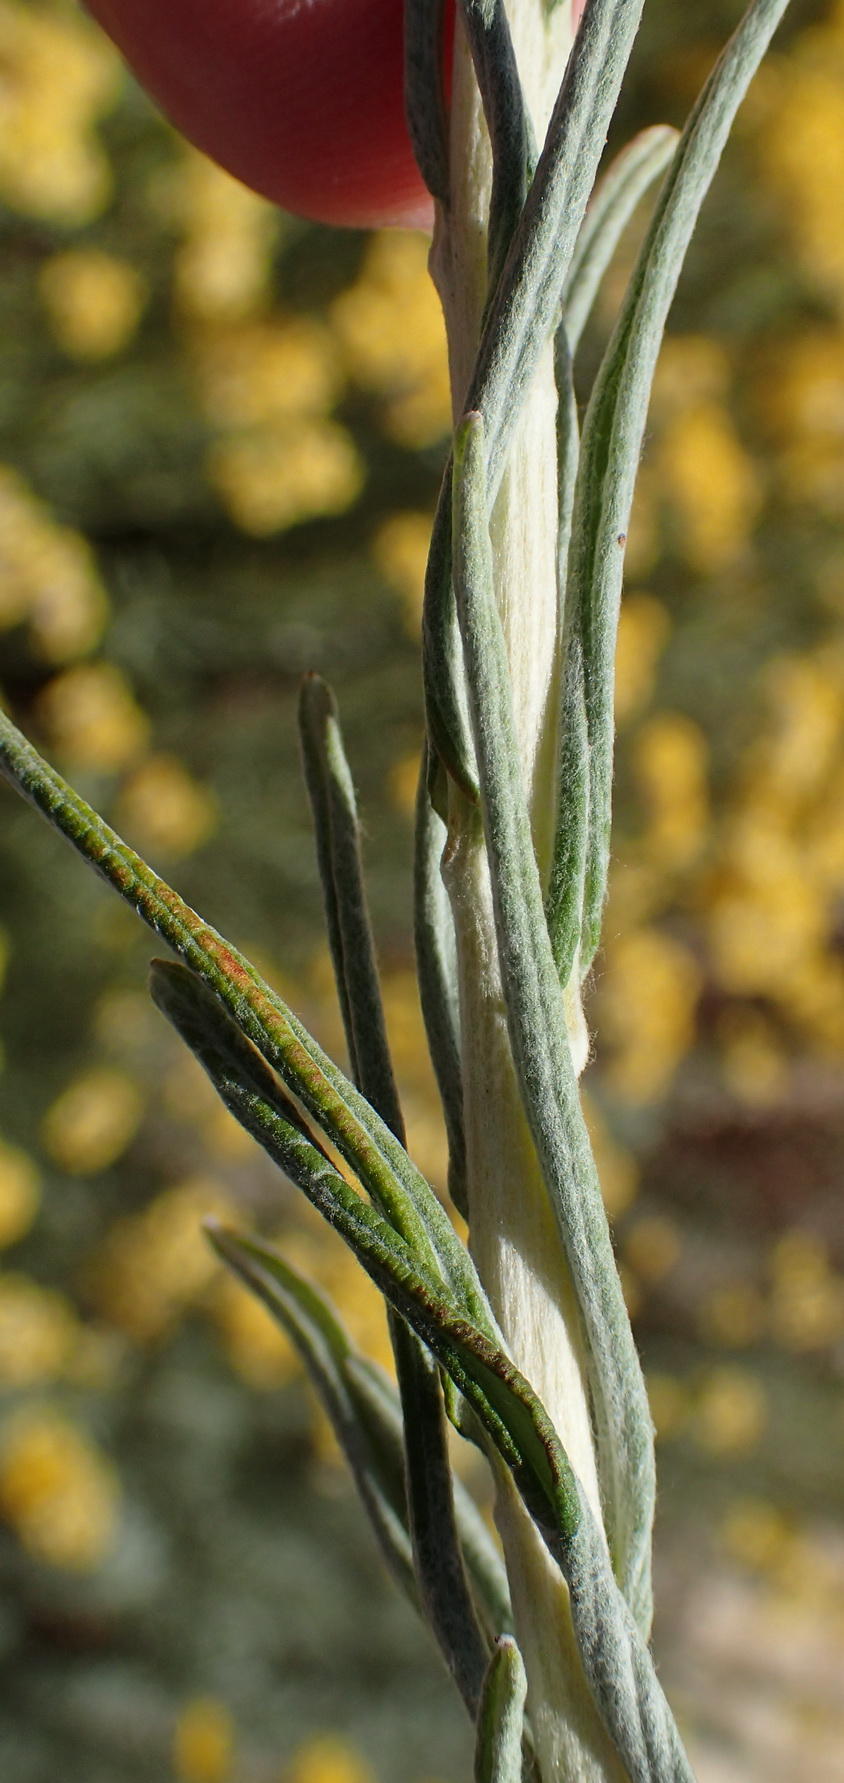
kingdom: Plantae
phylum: Tracheophyta
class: Magnoliopsida
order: Asterales
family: Asteraceae
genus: Helichrysum
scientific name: Helichrysum splendidum
